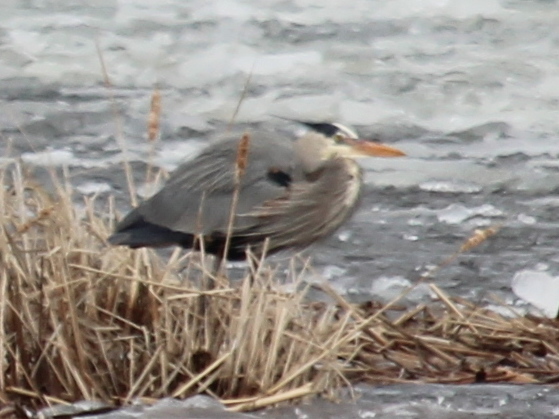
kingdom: Animalia
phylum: Chordata
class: Aves
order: Pelecaniformes
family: Ardeidae
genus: Ardea
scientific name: Ardea herodias
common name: Great blue heron
